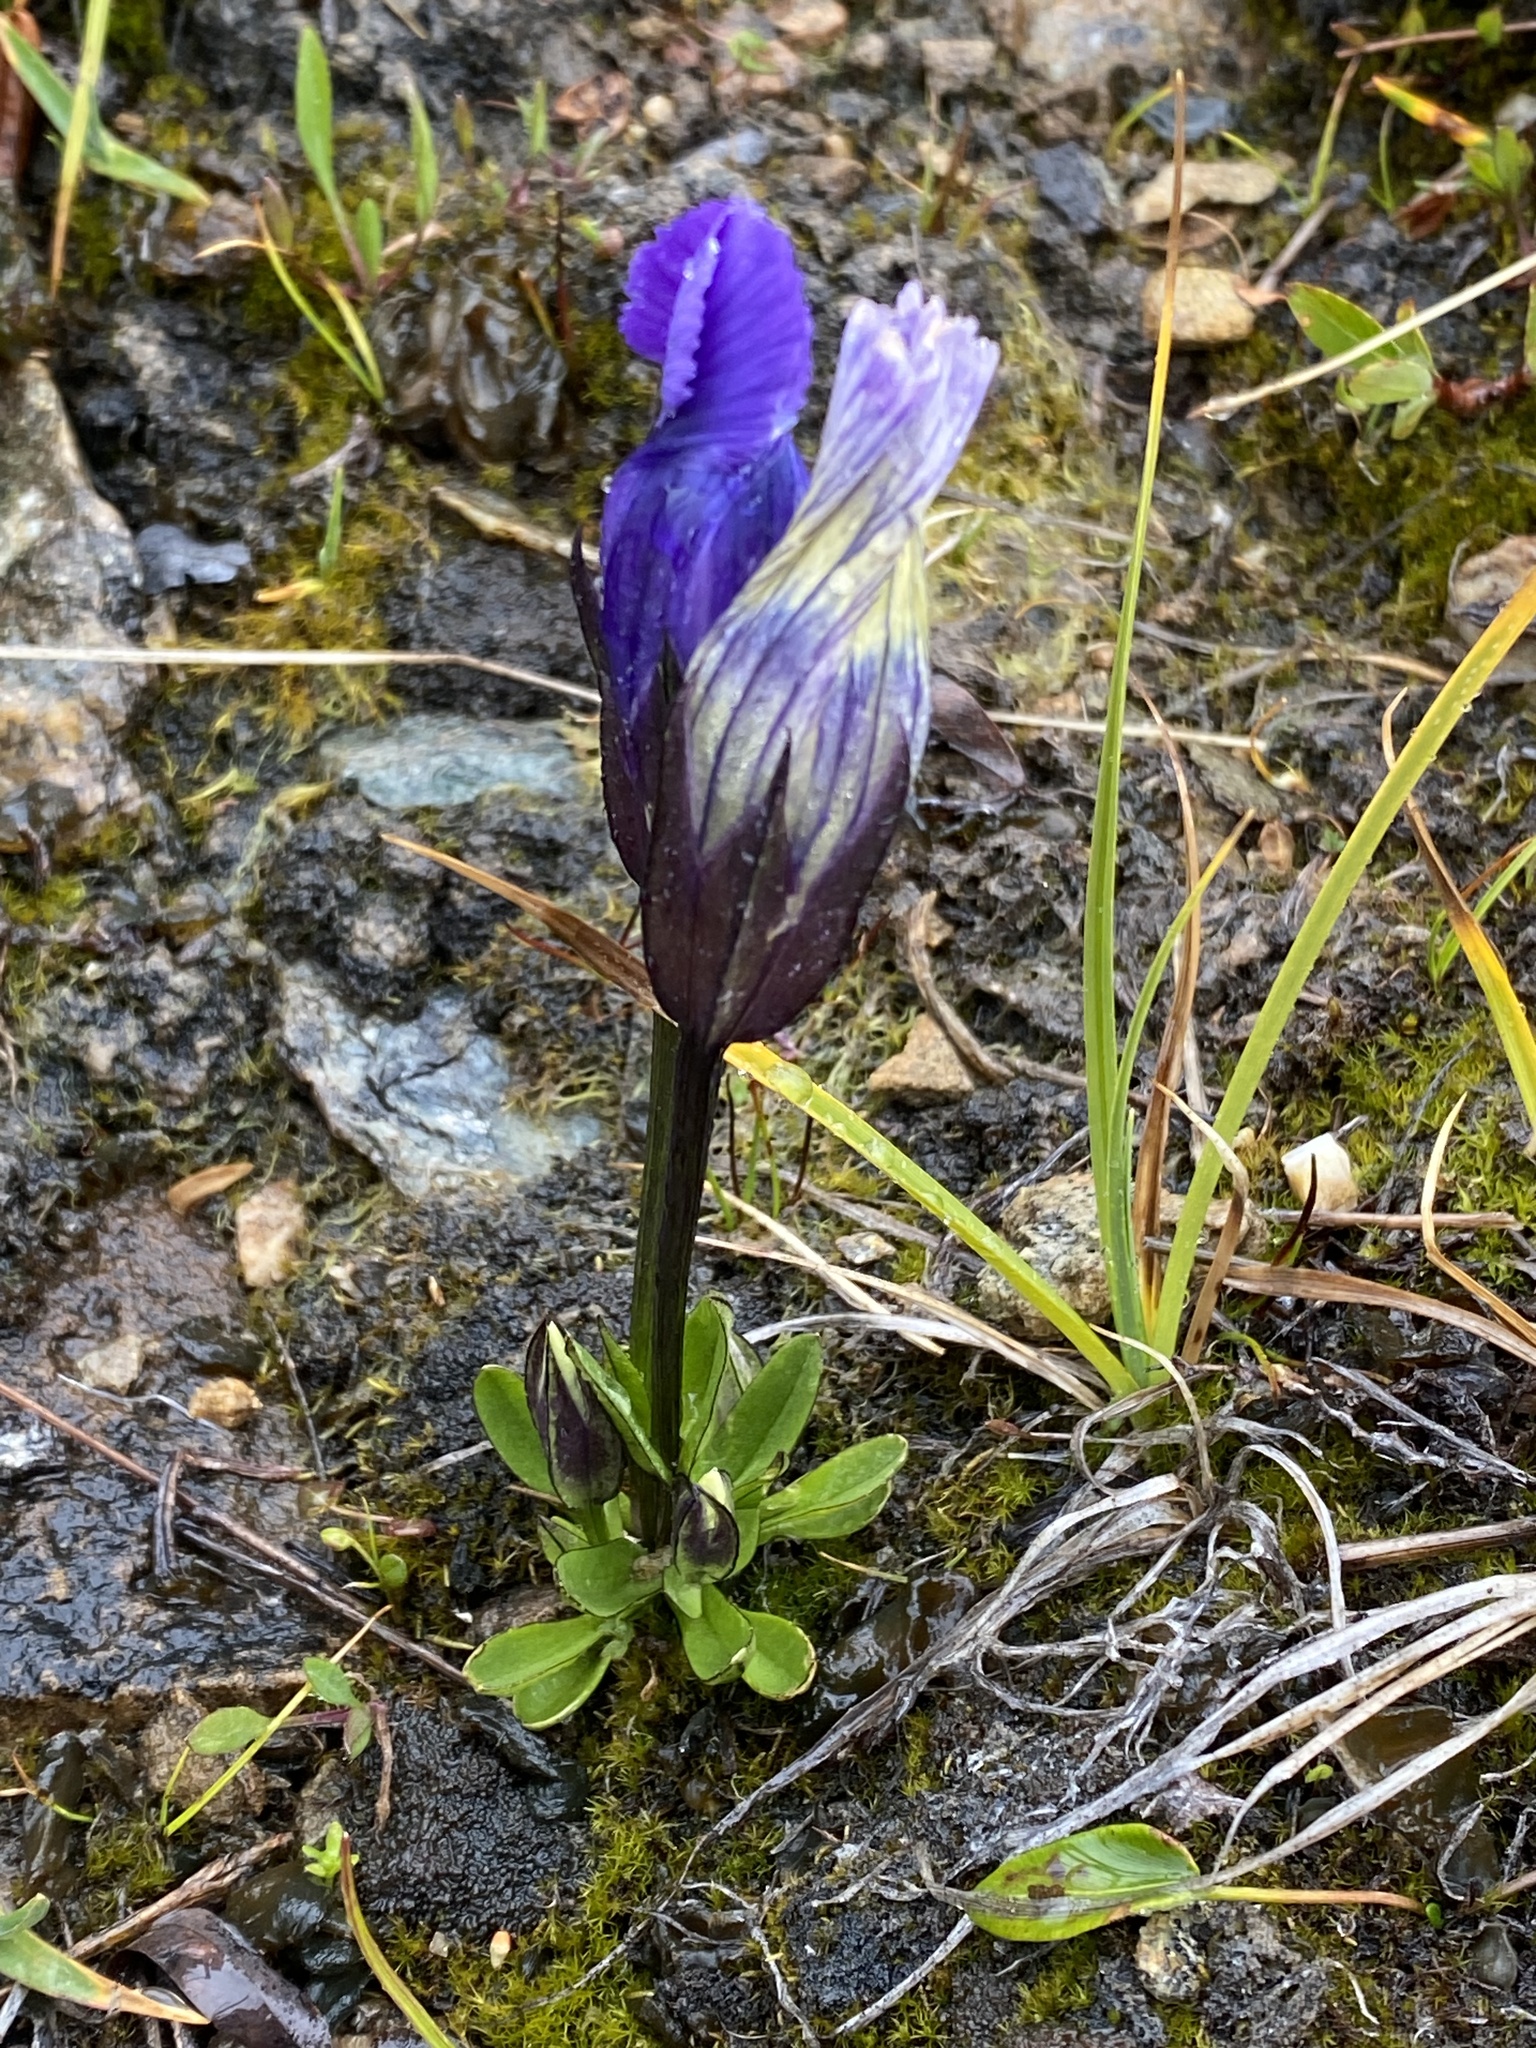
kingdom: Plantae
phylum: Tracheophyta
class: Magnoliopsida
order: Gentianales
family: Gentianaceae
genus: Gentianopsis
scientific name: Gentianopsis thermalis
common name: Rocky mountain fringed-gentian
